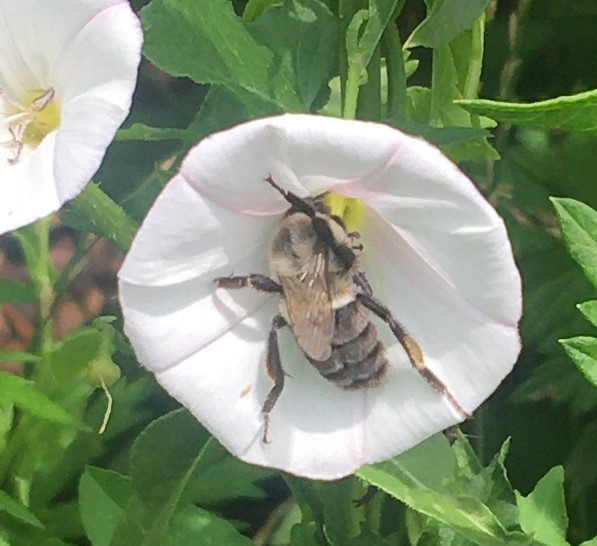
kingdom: Animalia
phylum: Arthropoda
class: Insecta
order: Hymenoptera
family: Apidae
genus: Bombus
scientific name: Bombus impatiens
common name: Common eastern bumble bee
